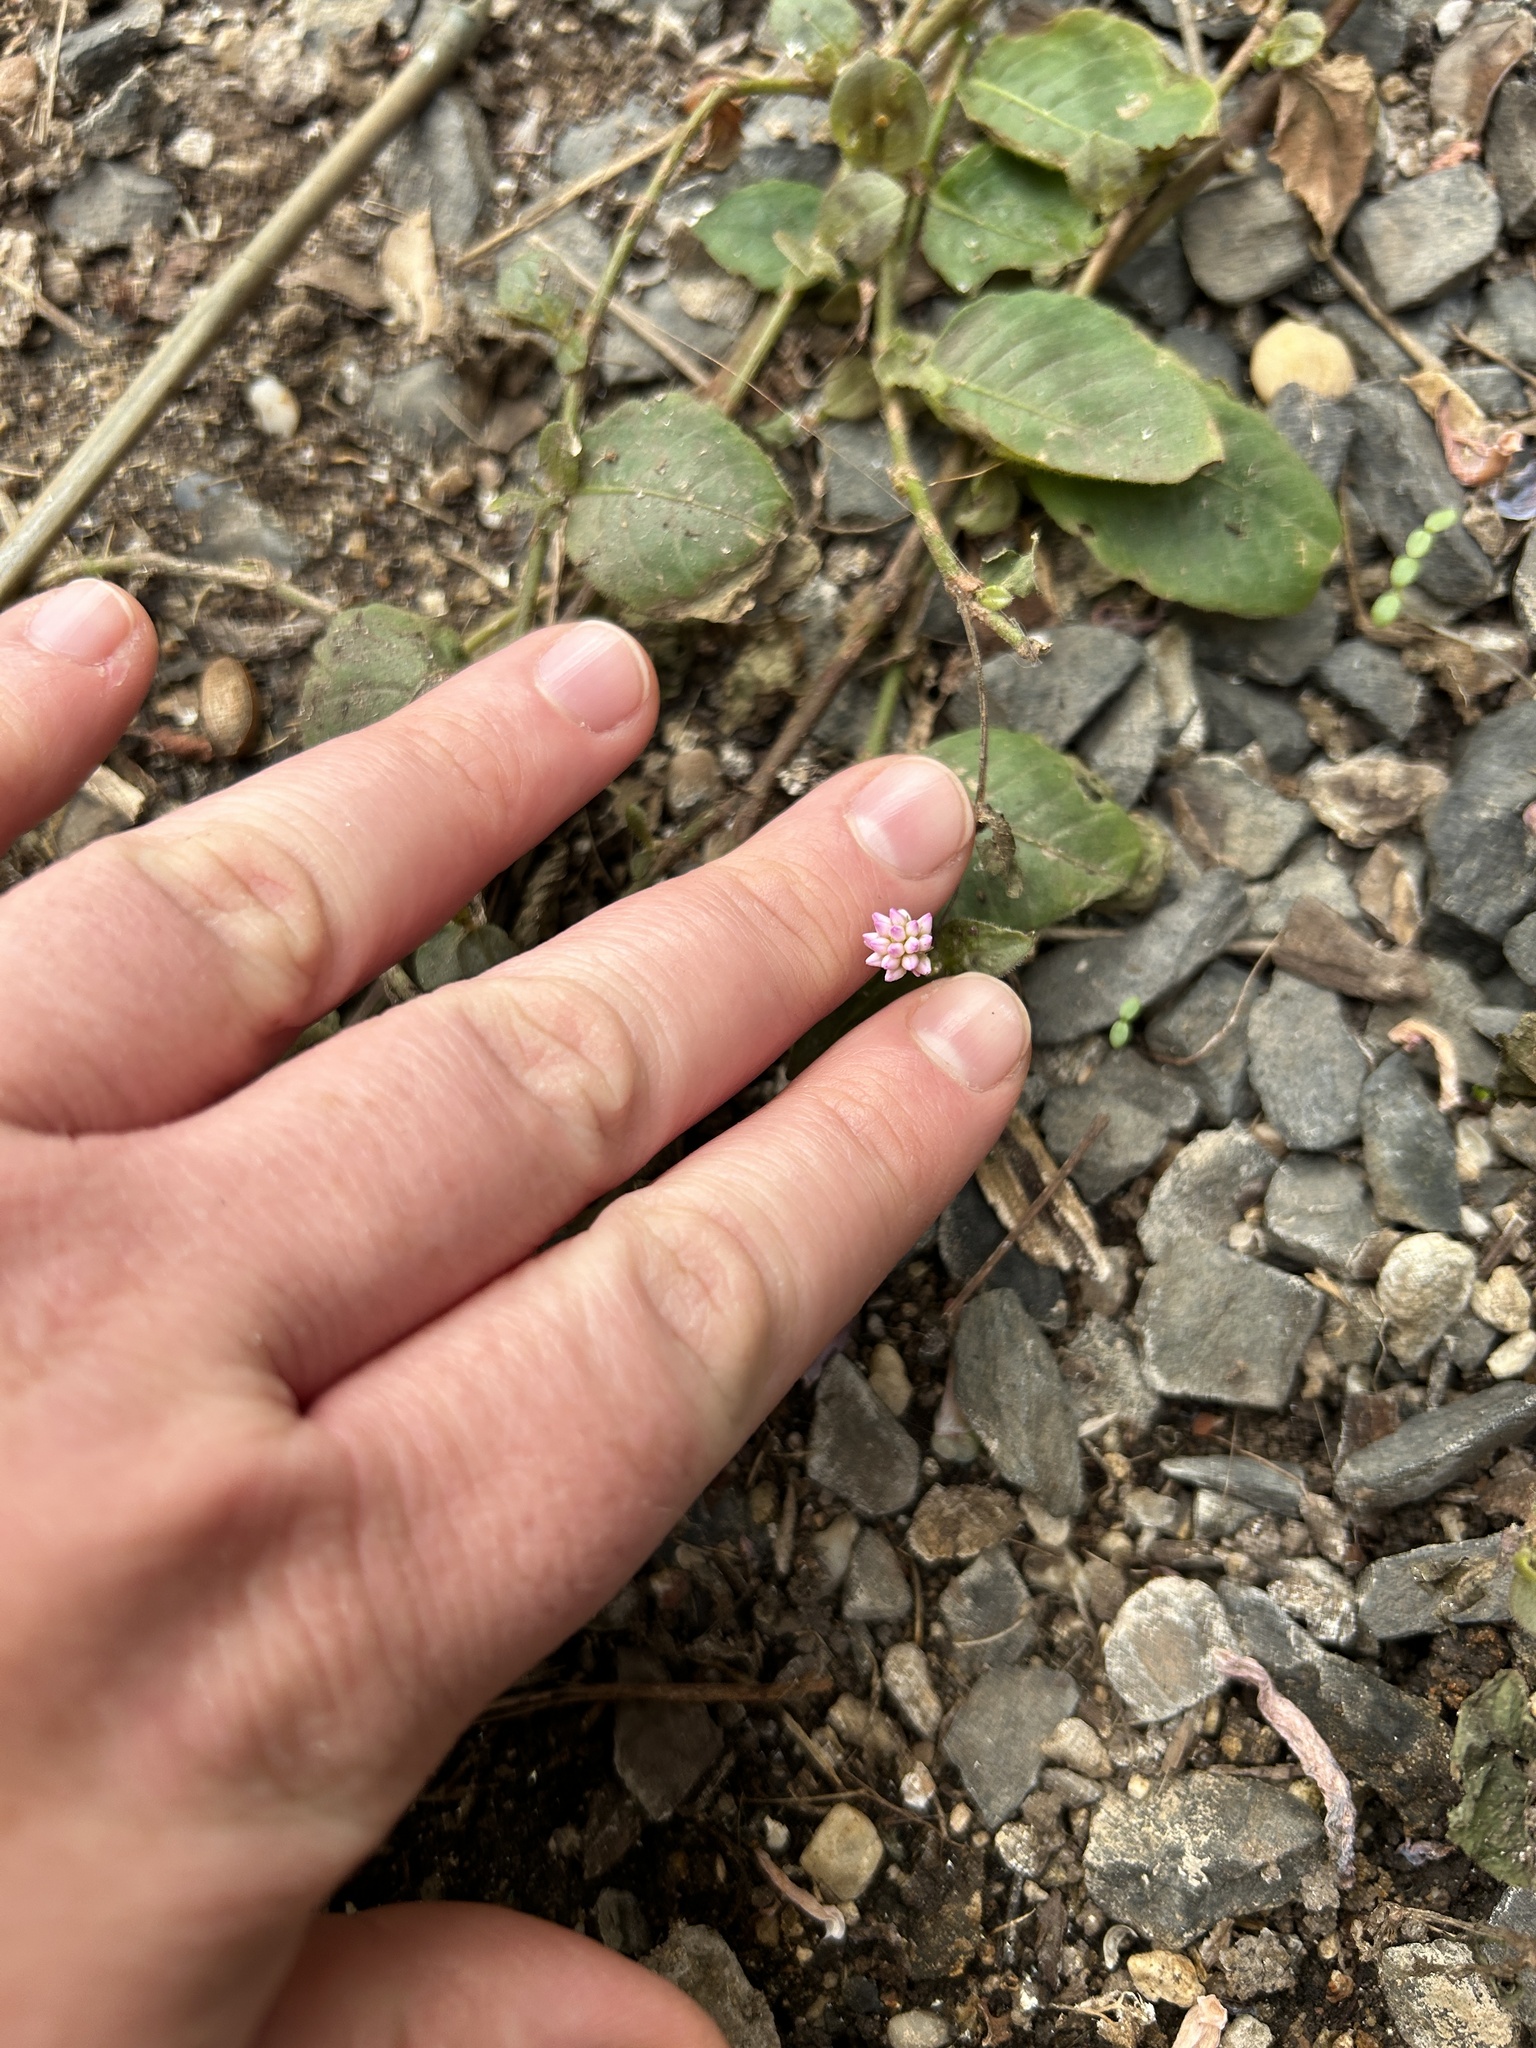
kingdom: Plantae
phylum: Tracheophyta
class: Magnoliopsida
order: Caryophyllales
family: Polygonaceae
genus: Persicaria
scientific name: Persicaria capitata
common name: Pinkhead smartweed
